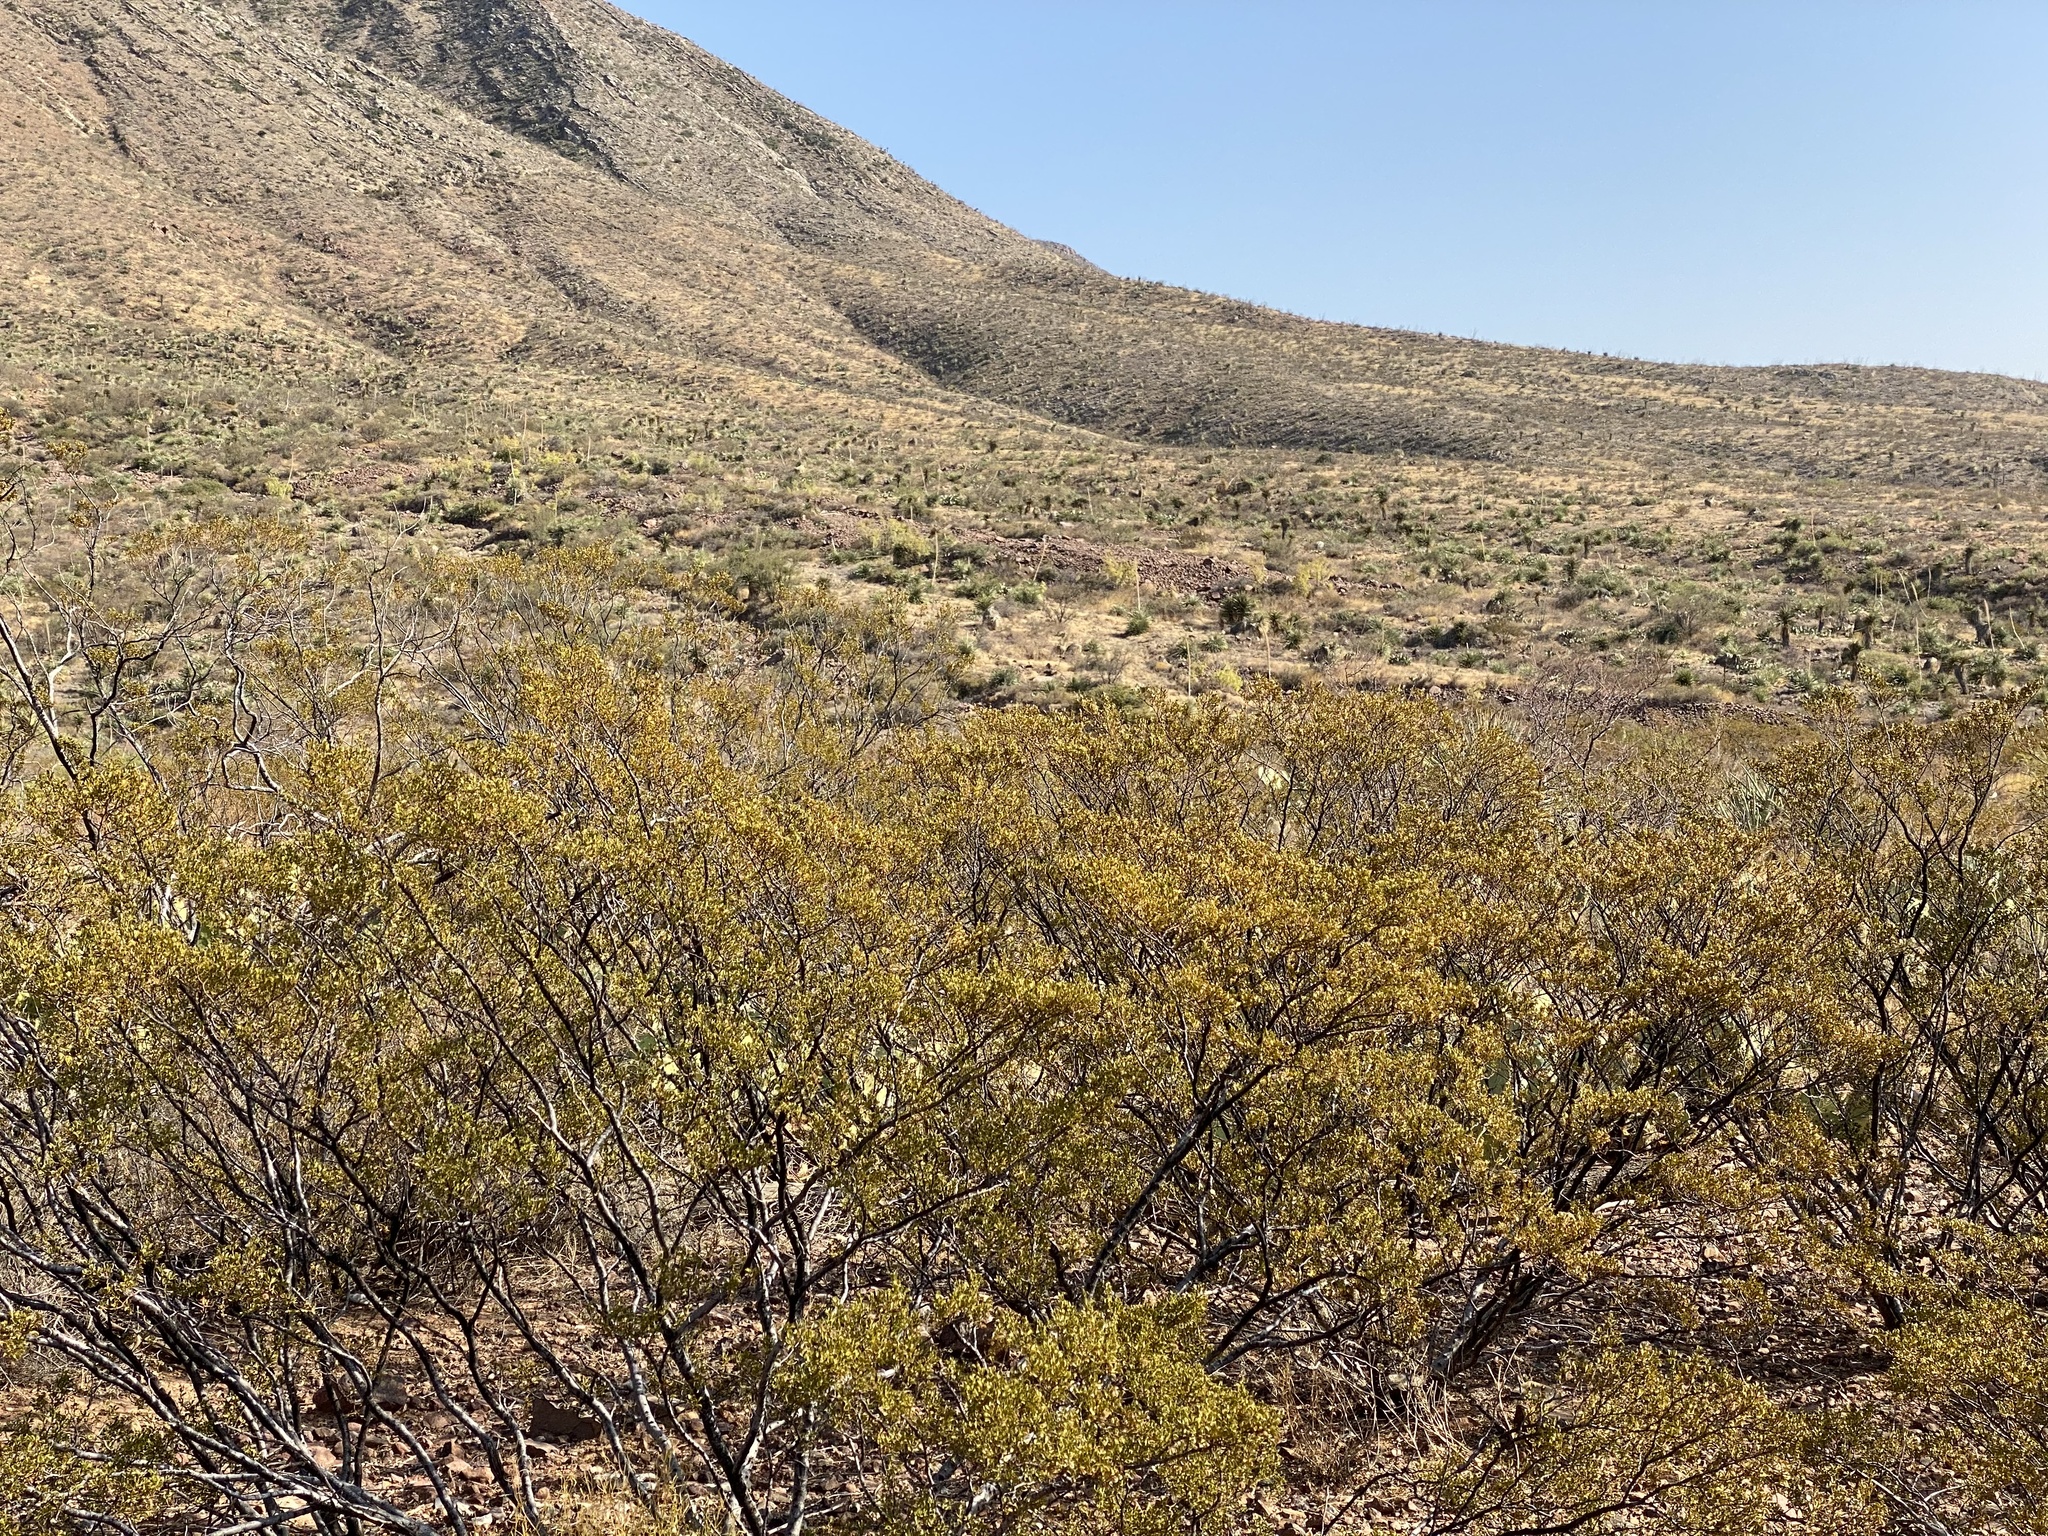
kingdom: Plantae
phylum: Tracheophyta
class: Magnoliopsida
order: Zygophyllales
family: Zygophyllaceae
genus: Larrea
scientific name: Larrea tridentata
